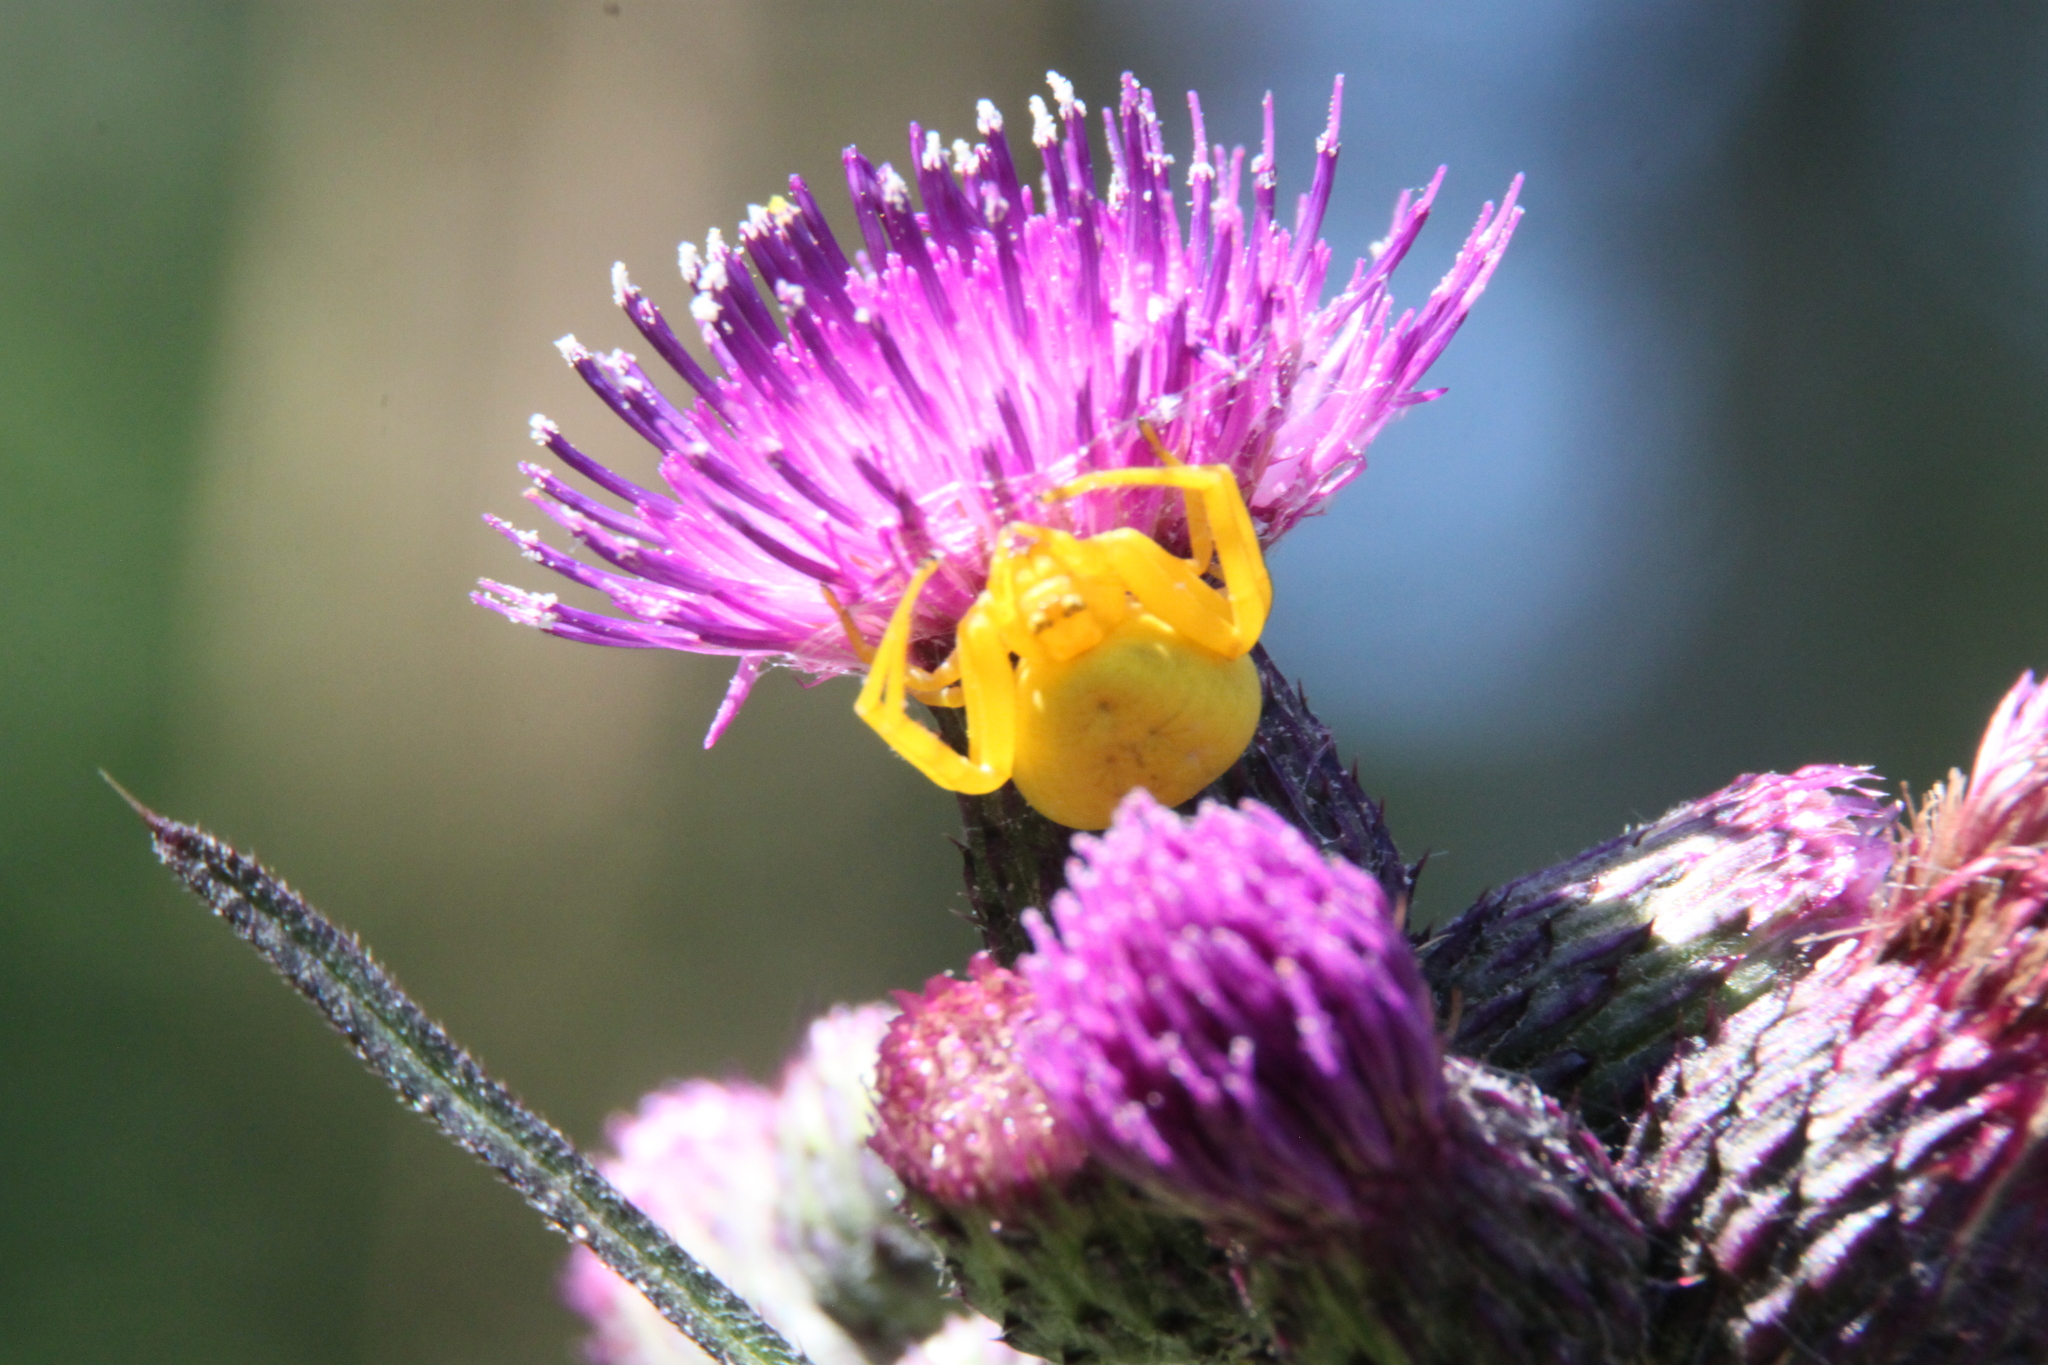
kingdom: Animalia
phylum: Arthropoda
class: Arachnida
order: Araneae
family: Thomisidae
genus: Misumena
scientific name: Misumena vatia
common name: Goldenrod crab spider
